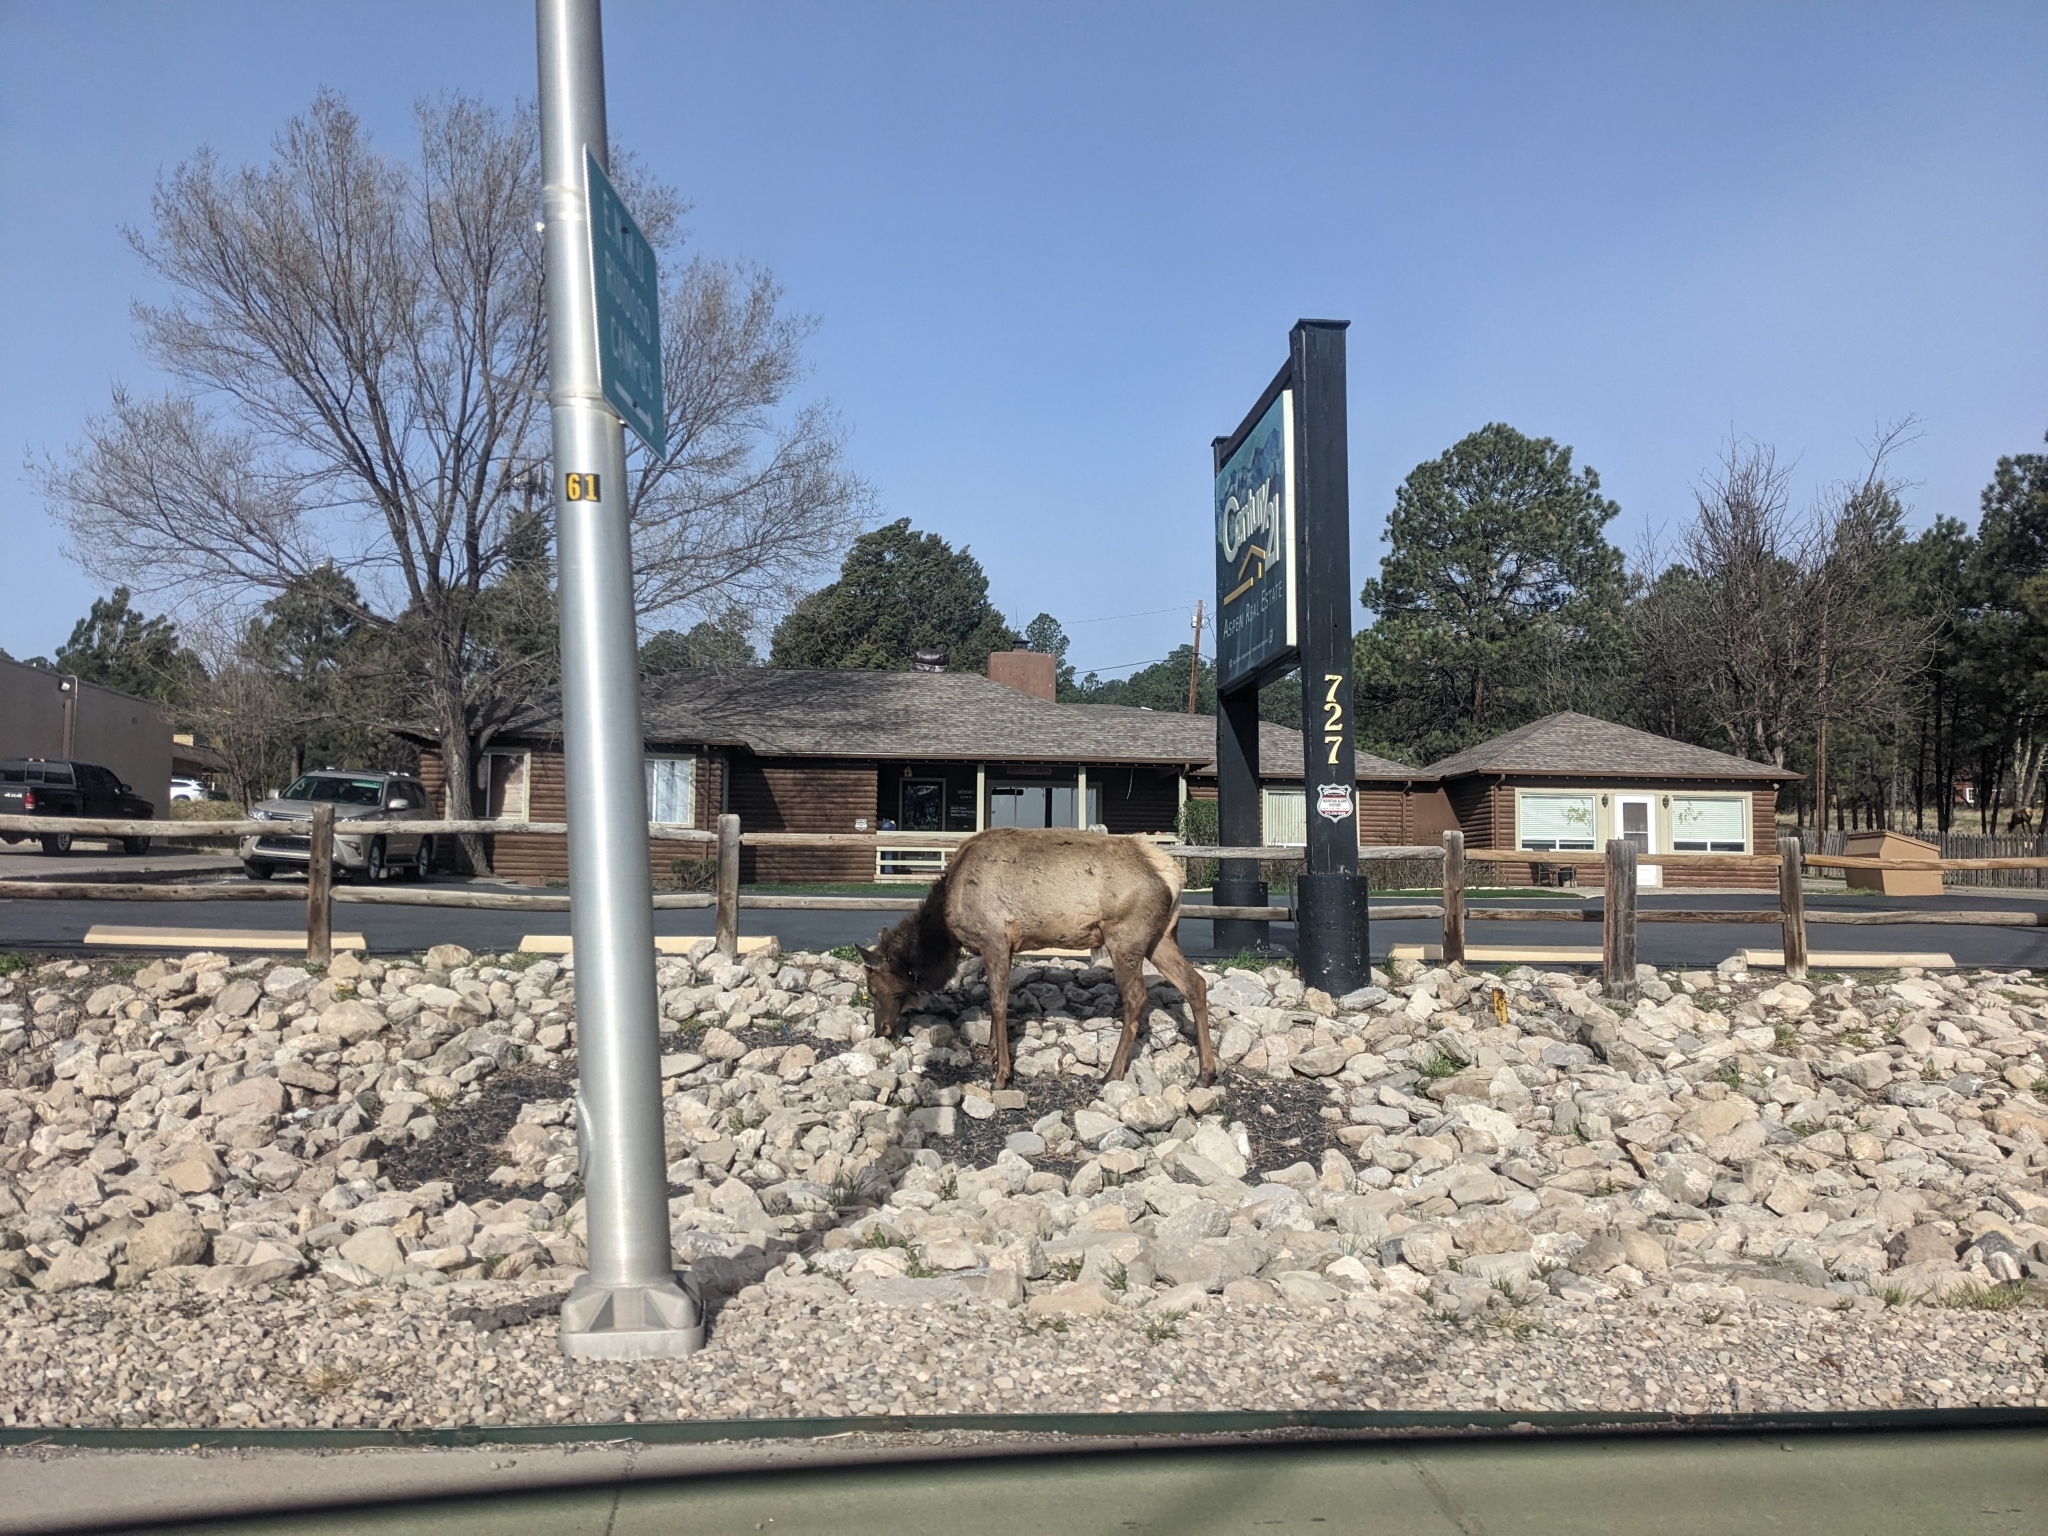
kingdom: Animalia
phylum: Chordata
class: Mammalia
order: Artiodactyla
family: Cervidae
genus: Cervus
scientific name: Cervus elaphus
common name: Red deer
